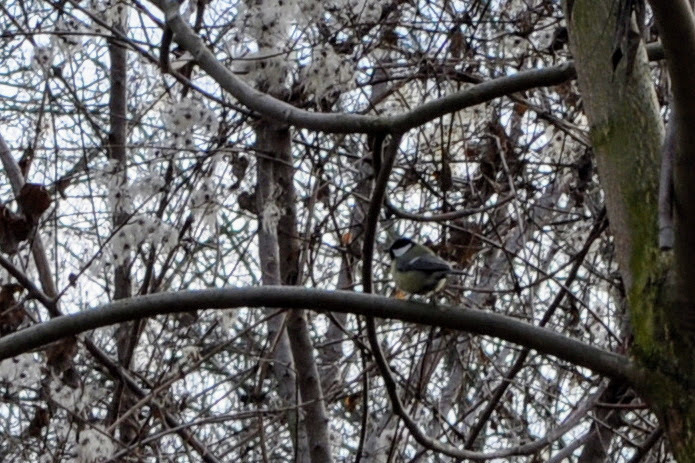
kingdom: Animalia
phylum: Chordata
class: Aves
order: Passeriformes
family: Paridae
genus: Parus
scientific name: Parus major
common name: Great tit
